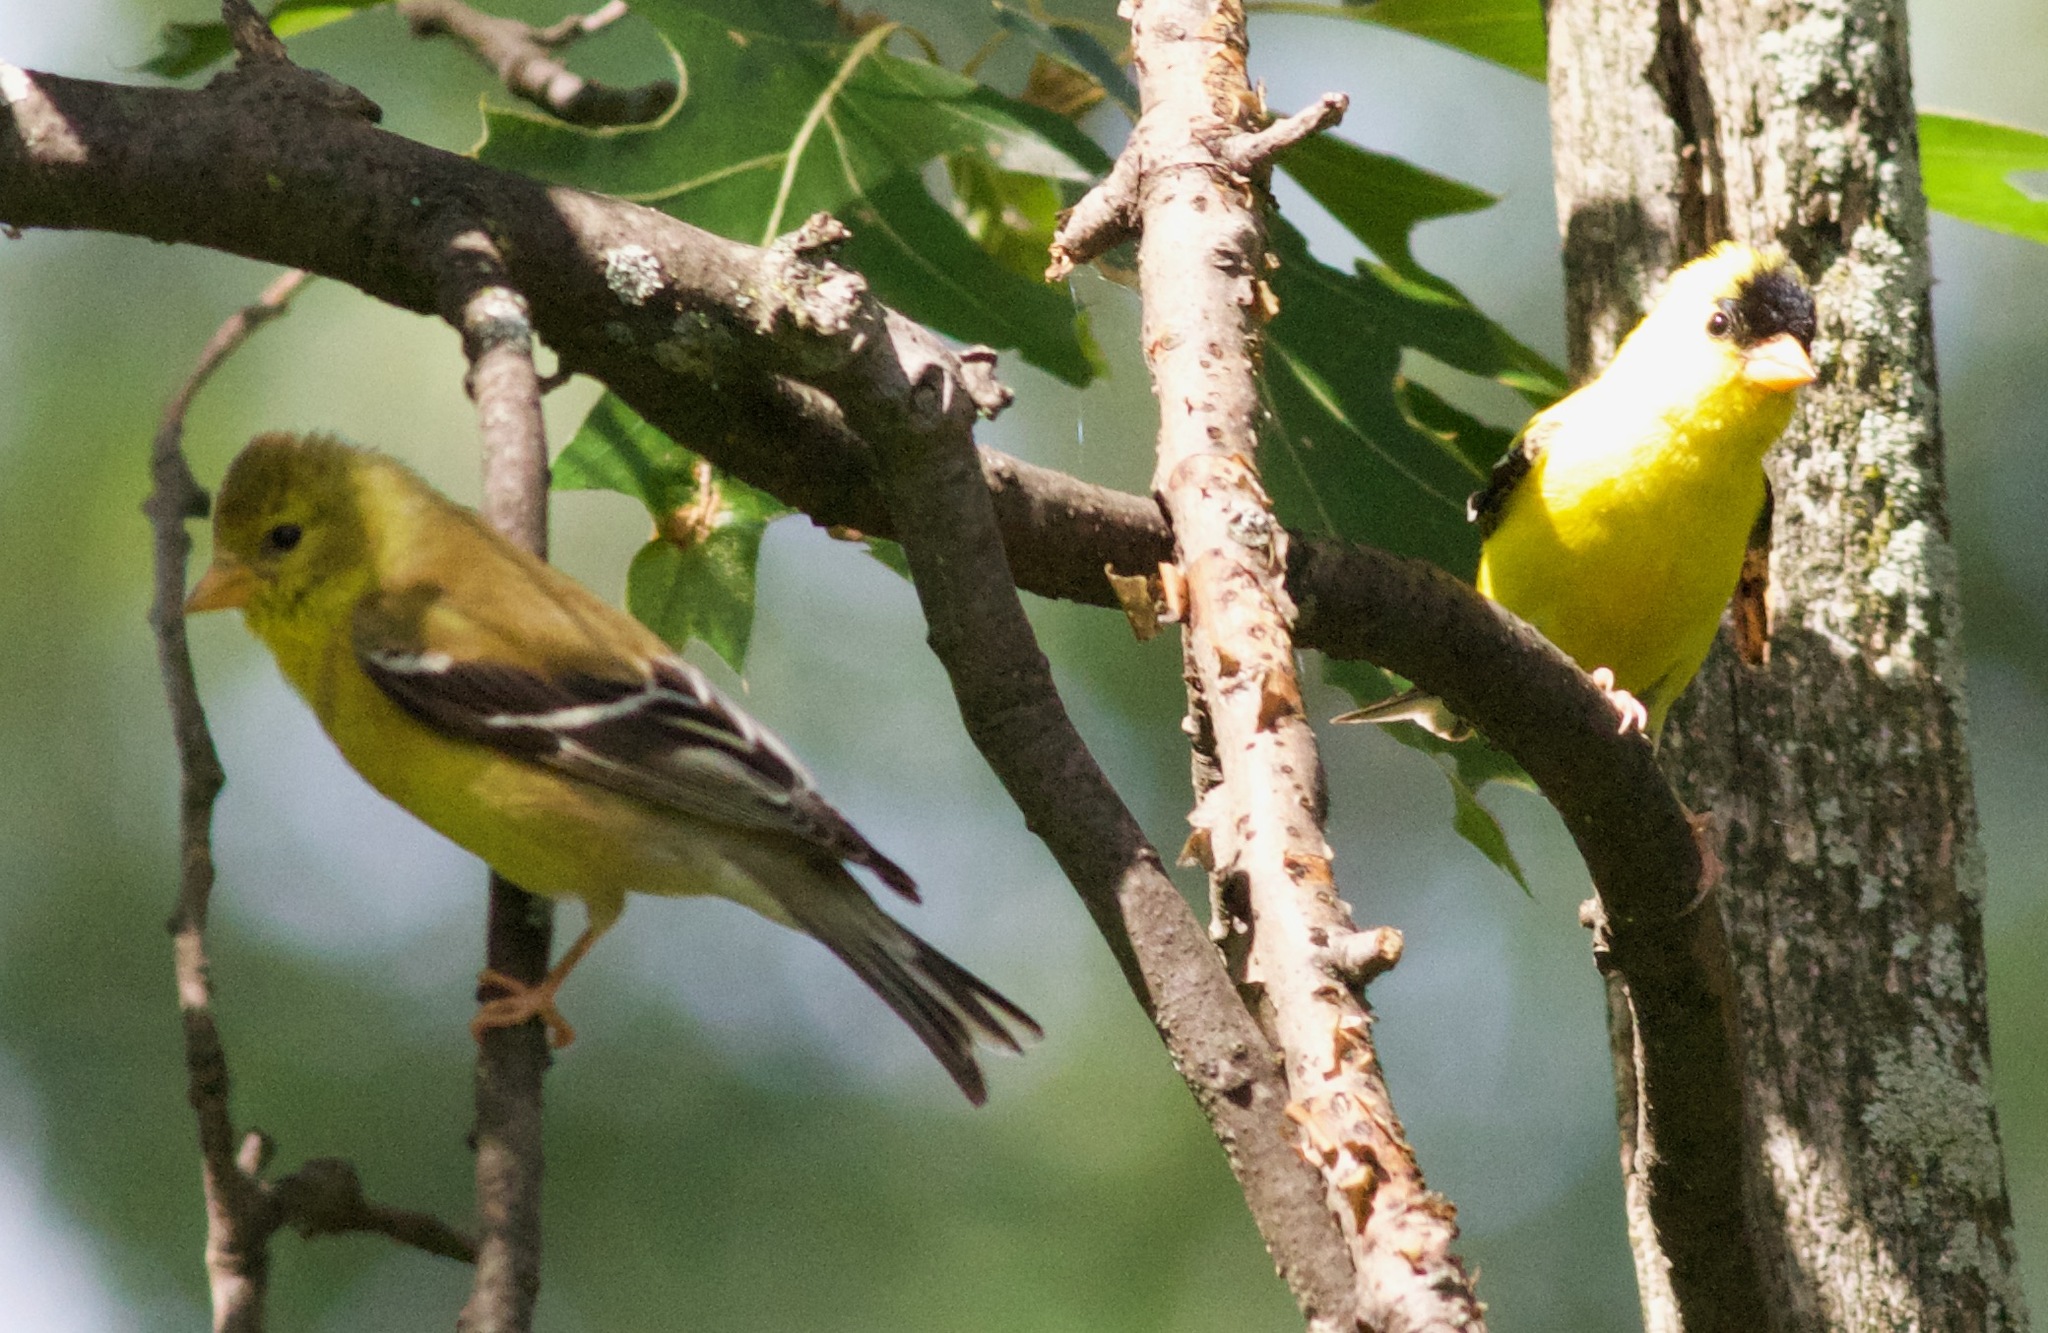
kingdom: Animalia
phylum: Chordata
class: Aves
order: Passeriformes
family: Fringillidae
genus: Spinus
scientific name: Spinus tristis
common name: American goldfinch
